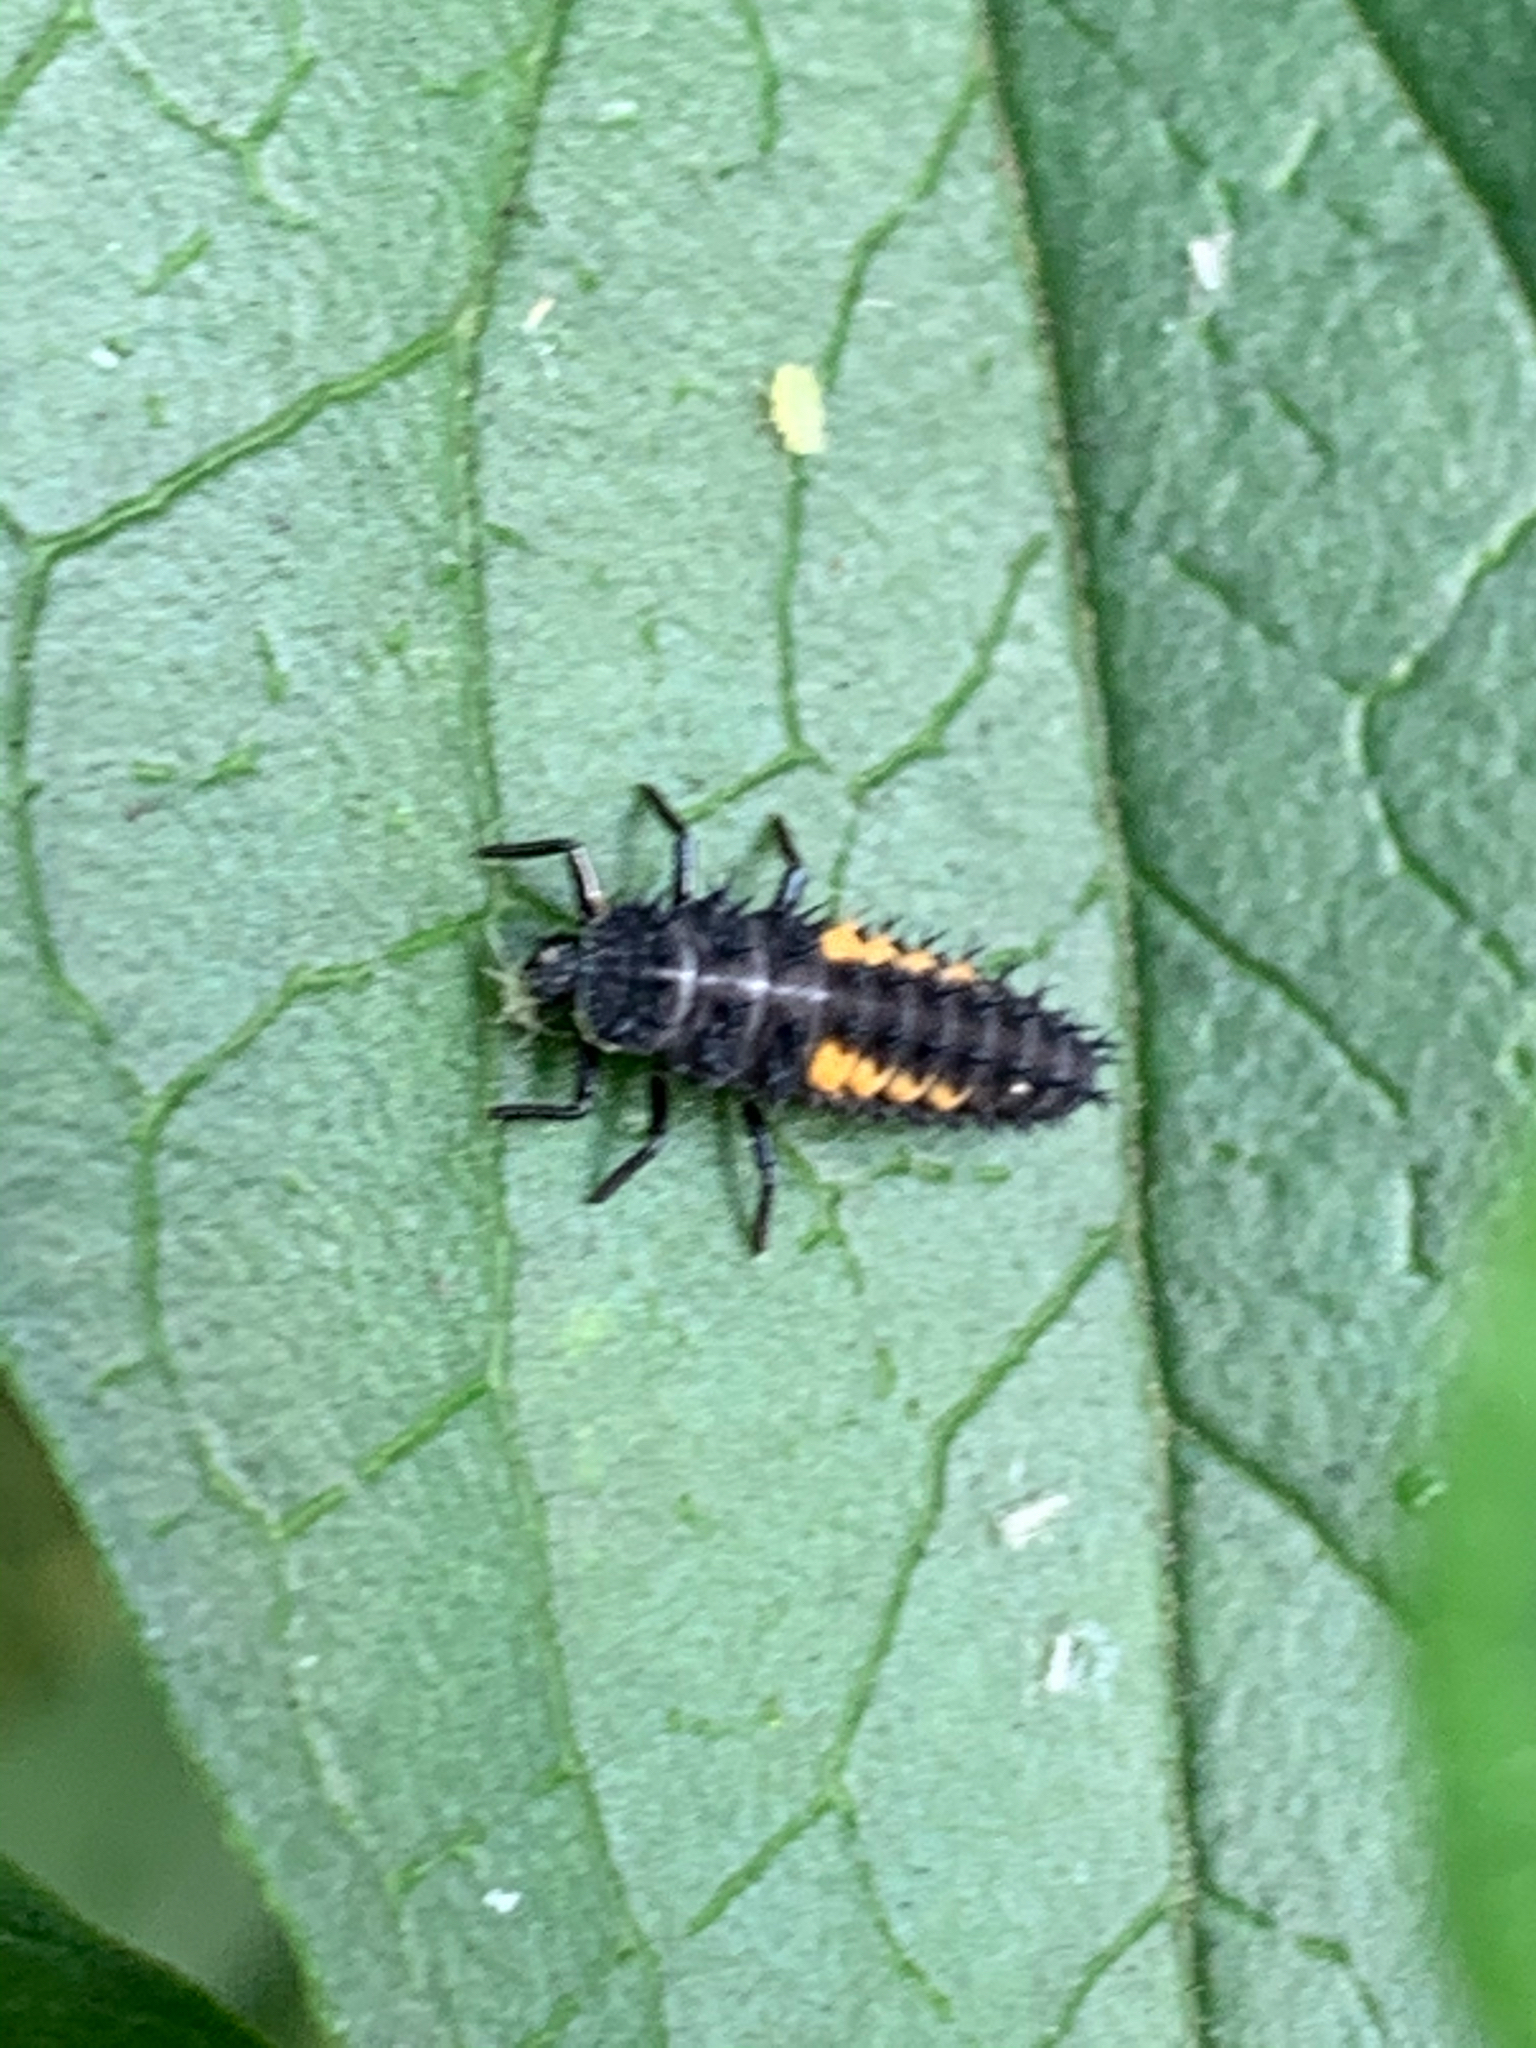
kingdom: Animalia
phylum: Arthropoda
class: Insecta
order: Coleoptera
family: Coccinellidae
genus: Harmonia
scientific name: Harmonia axyridis
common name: Harlequin ladybird
